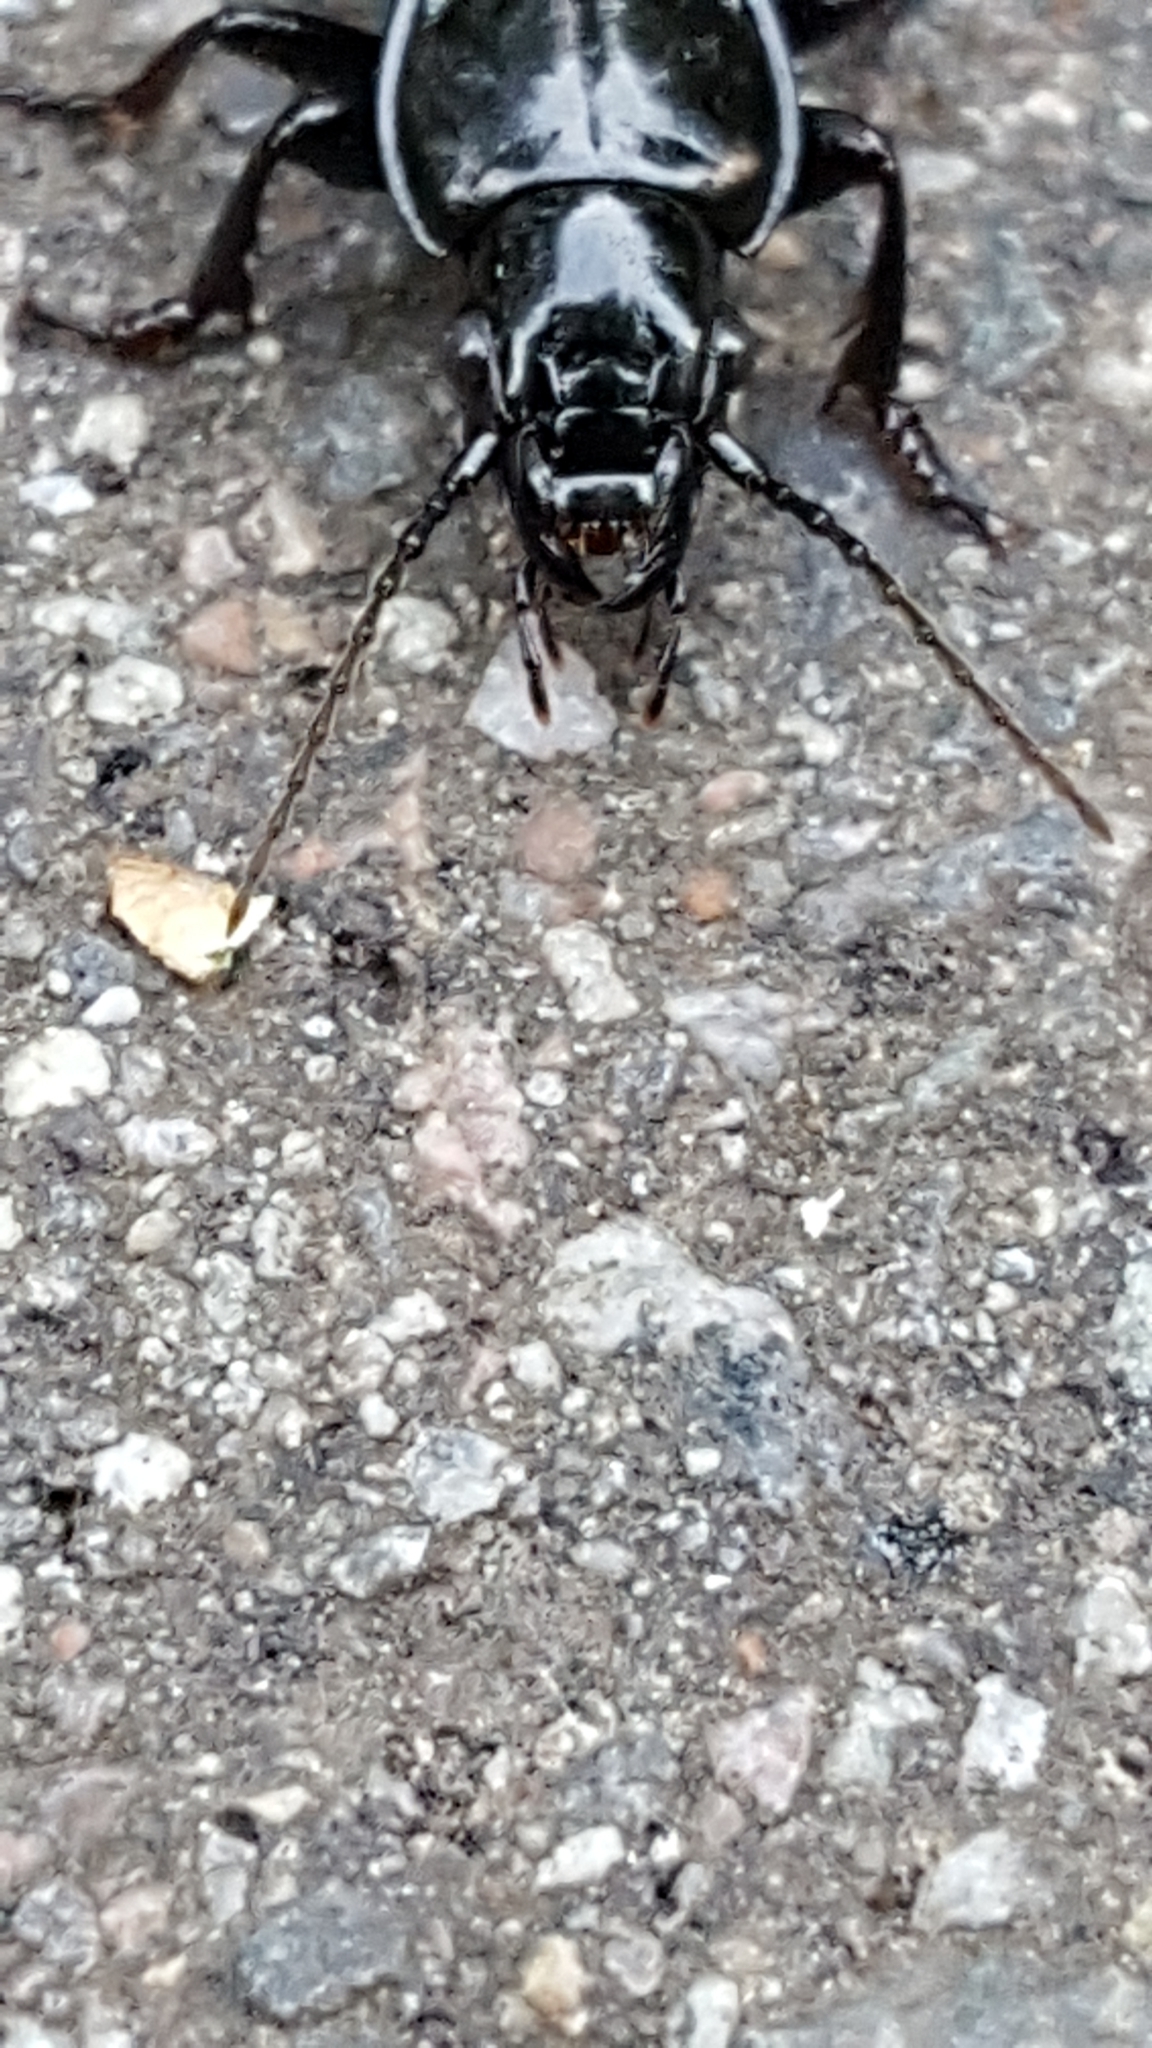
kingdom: Animalia
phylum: Arthropoda
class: Insecta
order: Coleoptera
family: Carabidae
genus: Pterostichus
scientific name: Pterostichus melanarius
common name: European dark harp ground beetle
